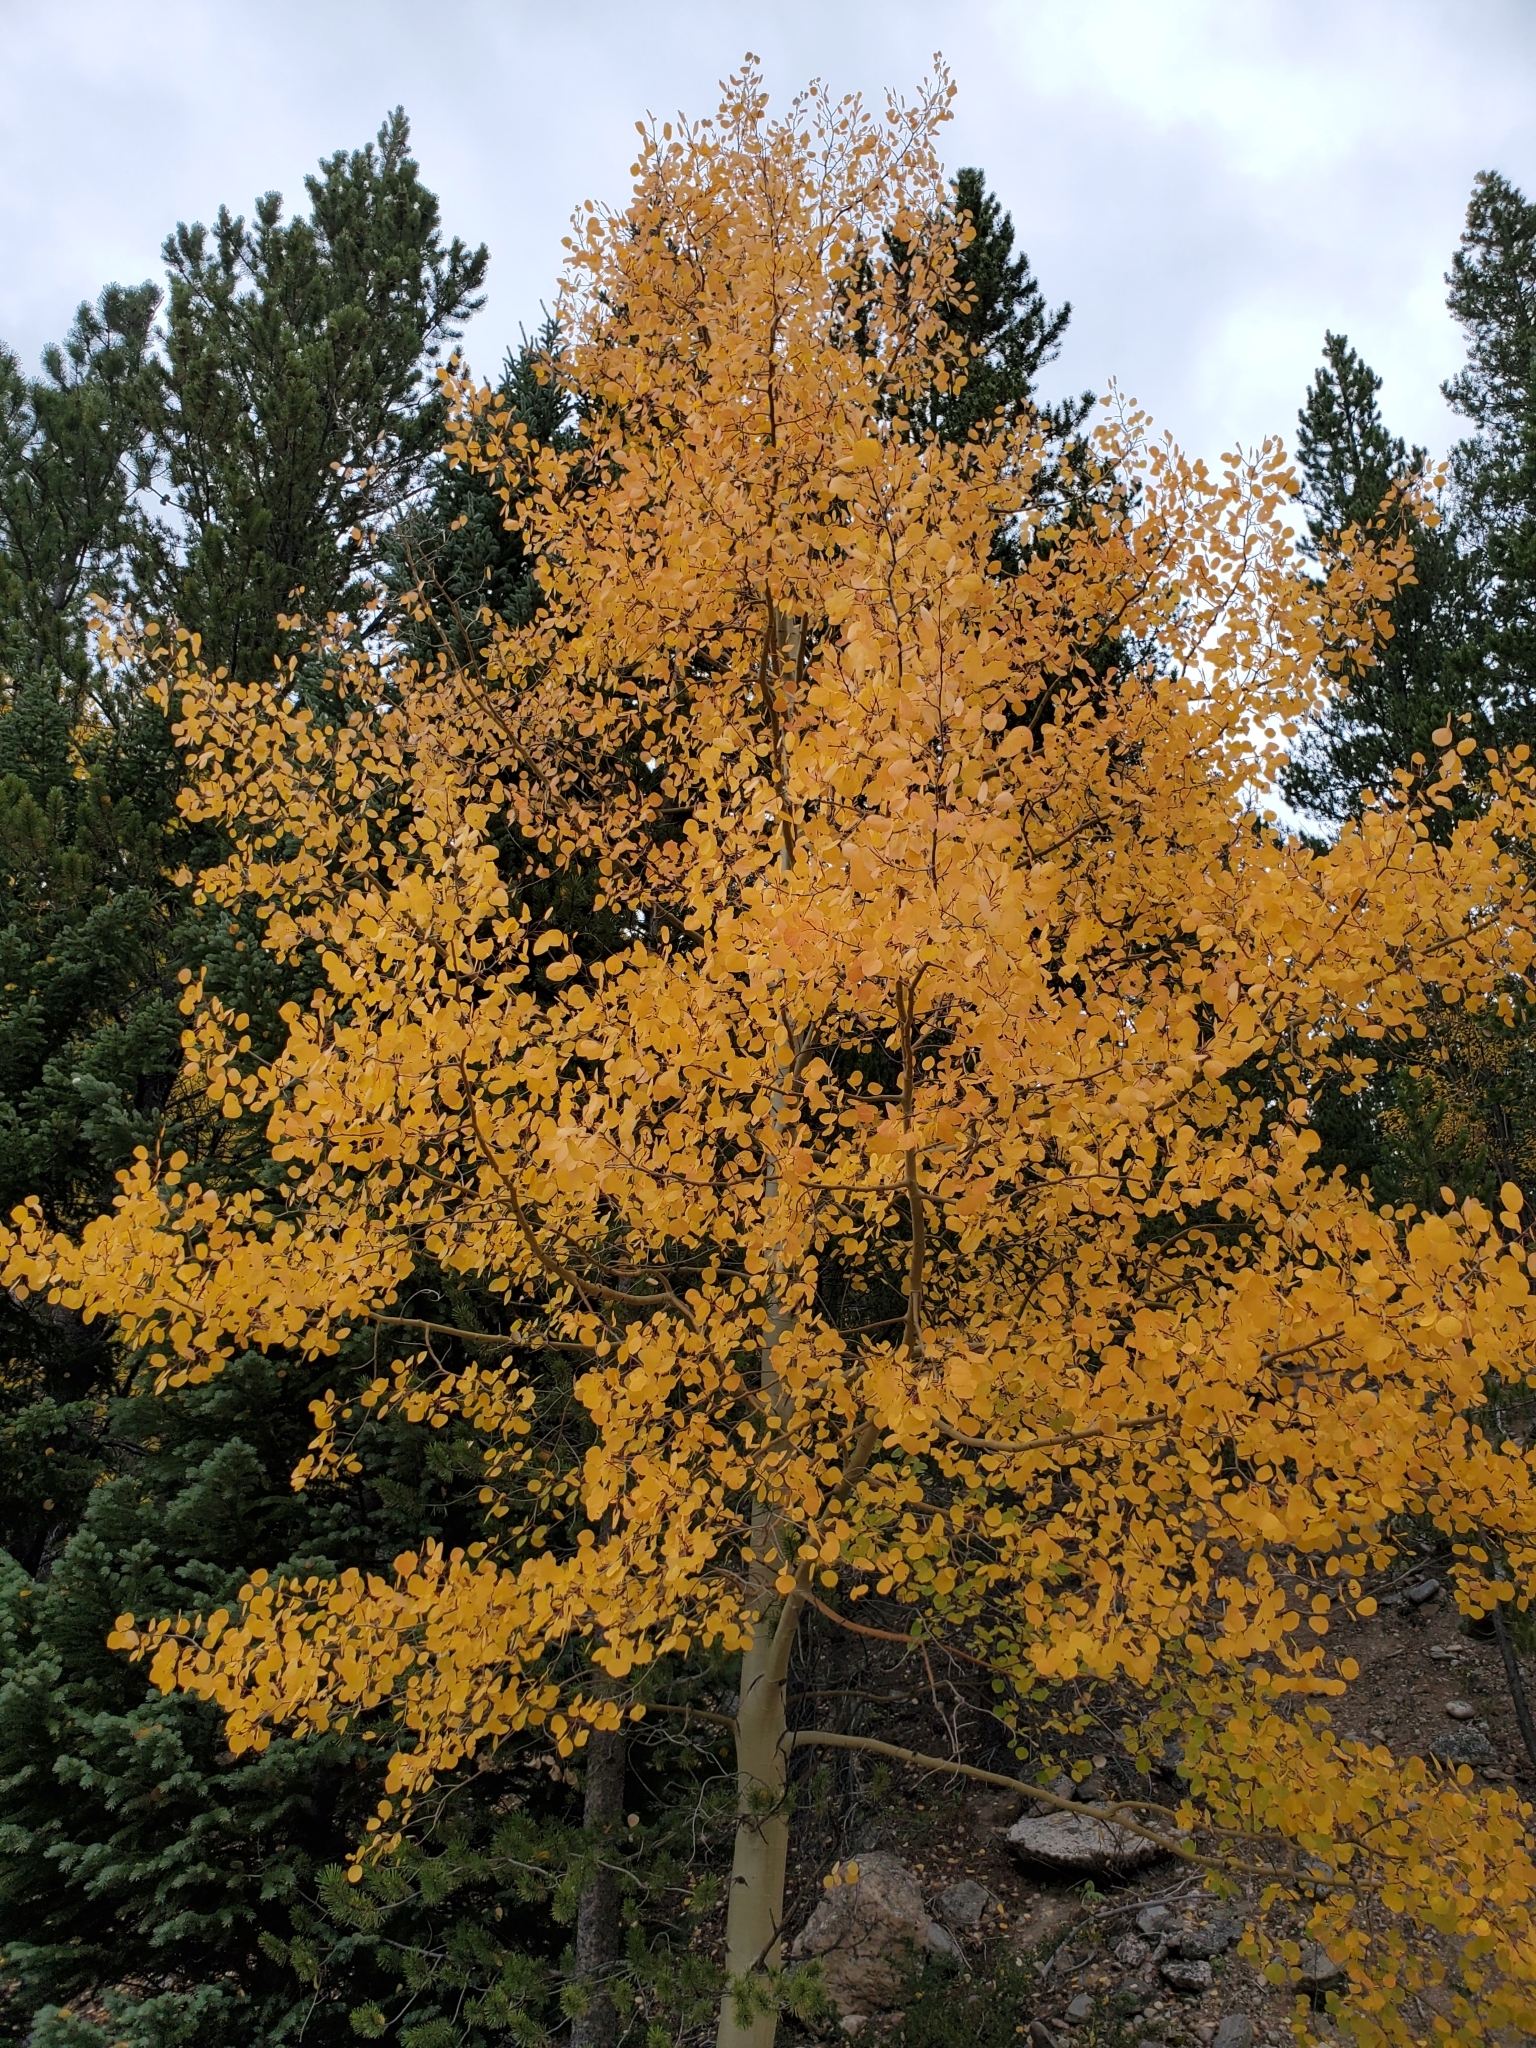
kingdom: Plantae
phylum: Tracheophyta
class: Magnoliopsida
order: Malpighiales
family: Salicaceae
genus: Populus
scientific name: Populus tremuloides
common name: Quaking aspen
